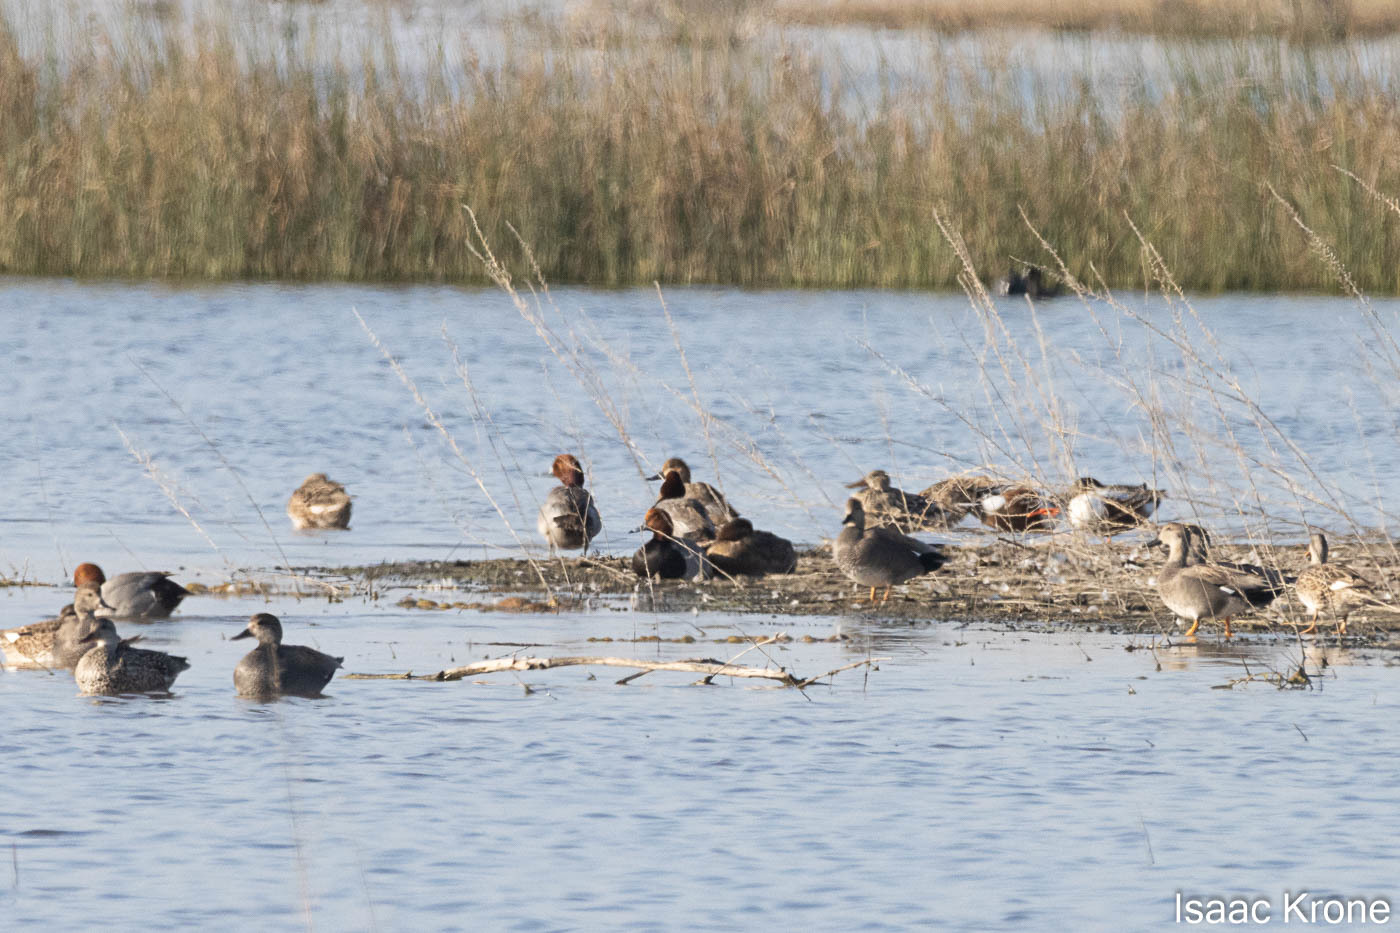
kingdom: Animalia
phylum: Chordata
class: Aves
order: Anseriformes
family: Anatidae
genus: Aythya
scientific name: Aythya americana
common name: Redhead
